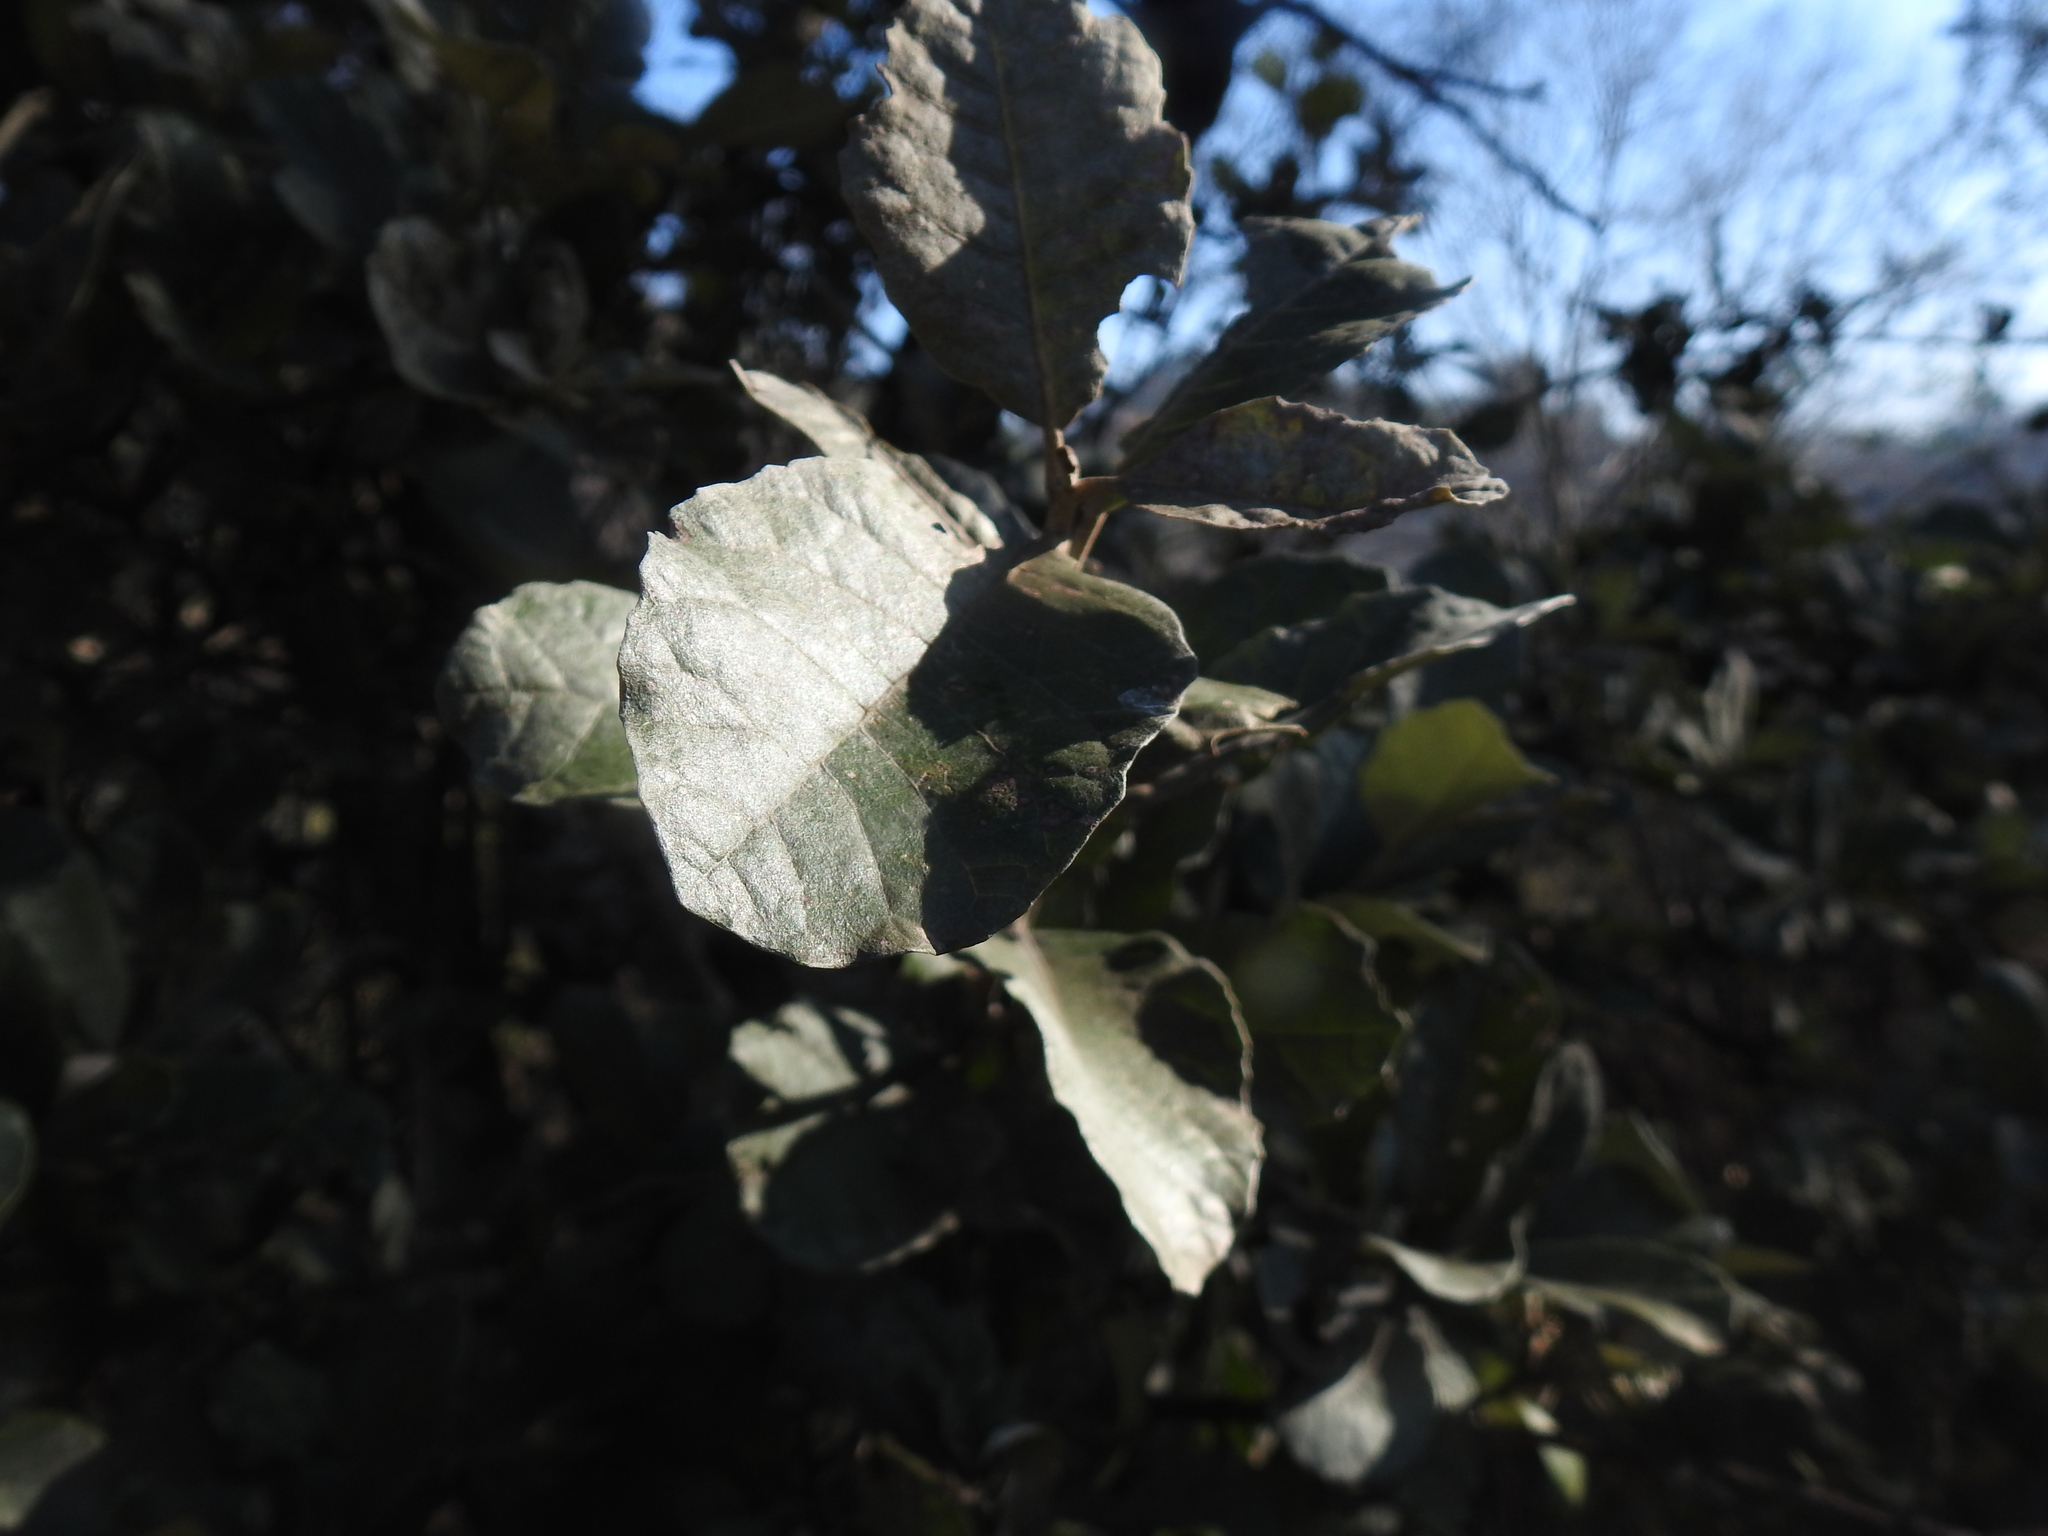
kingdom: Plantae
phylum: Tracheophyta
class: Magnoliopsida
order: Asterales
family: Asteraceae
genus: Brachylaena
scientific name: Brachylaena discolor
